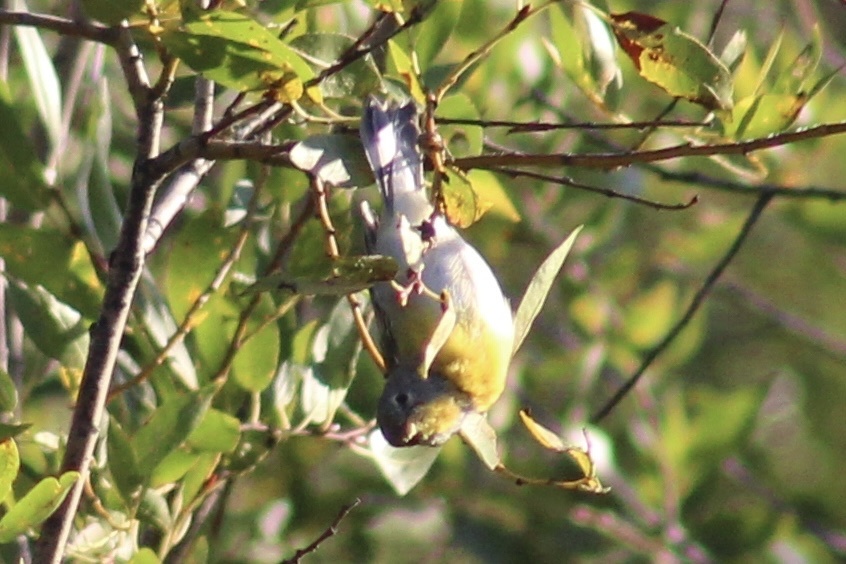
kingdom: Animalia
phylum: Chordata
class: Aves
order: Passeriformes
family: Parulidae
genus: Setophaga
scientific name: Setophaga americana
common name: Northern parula
